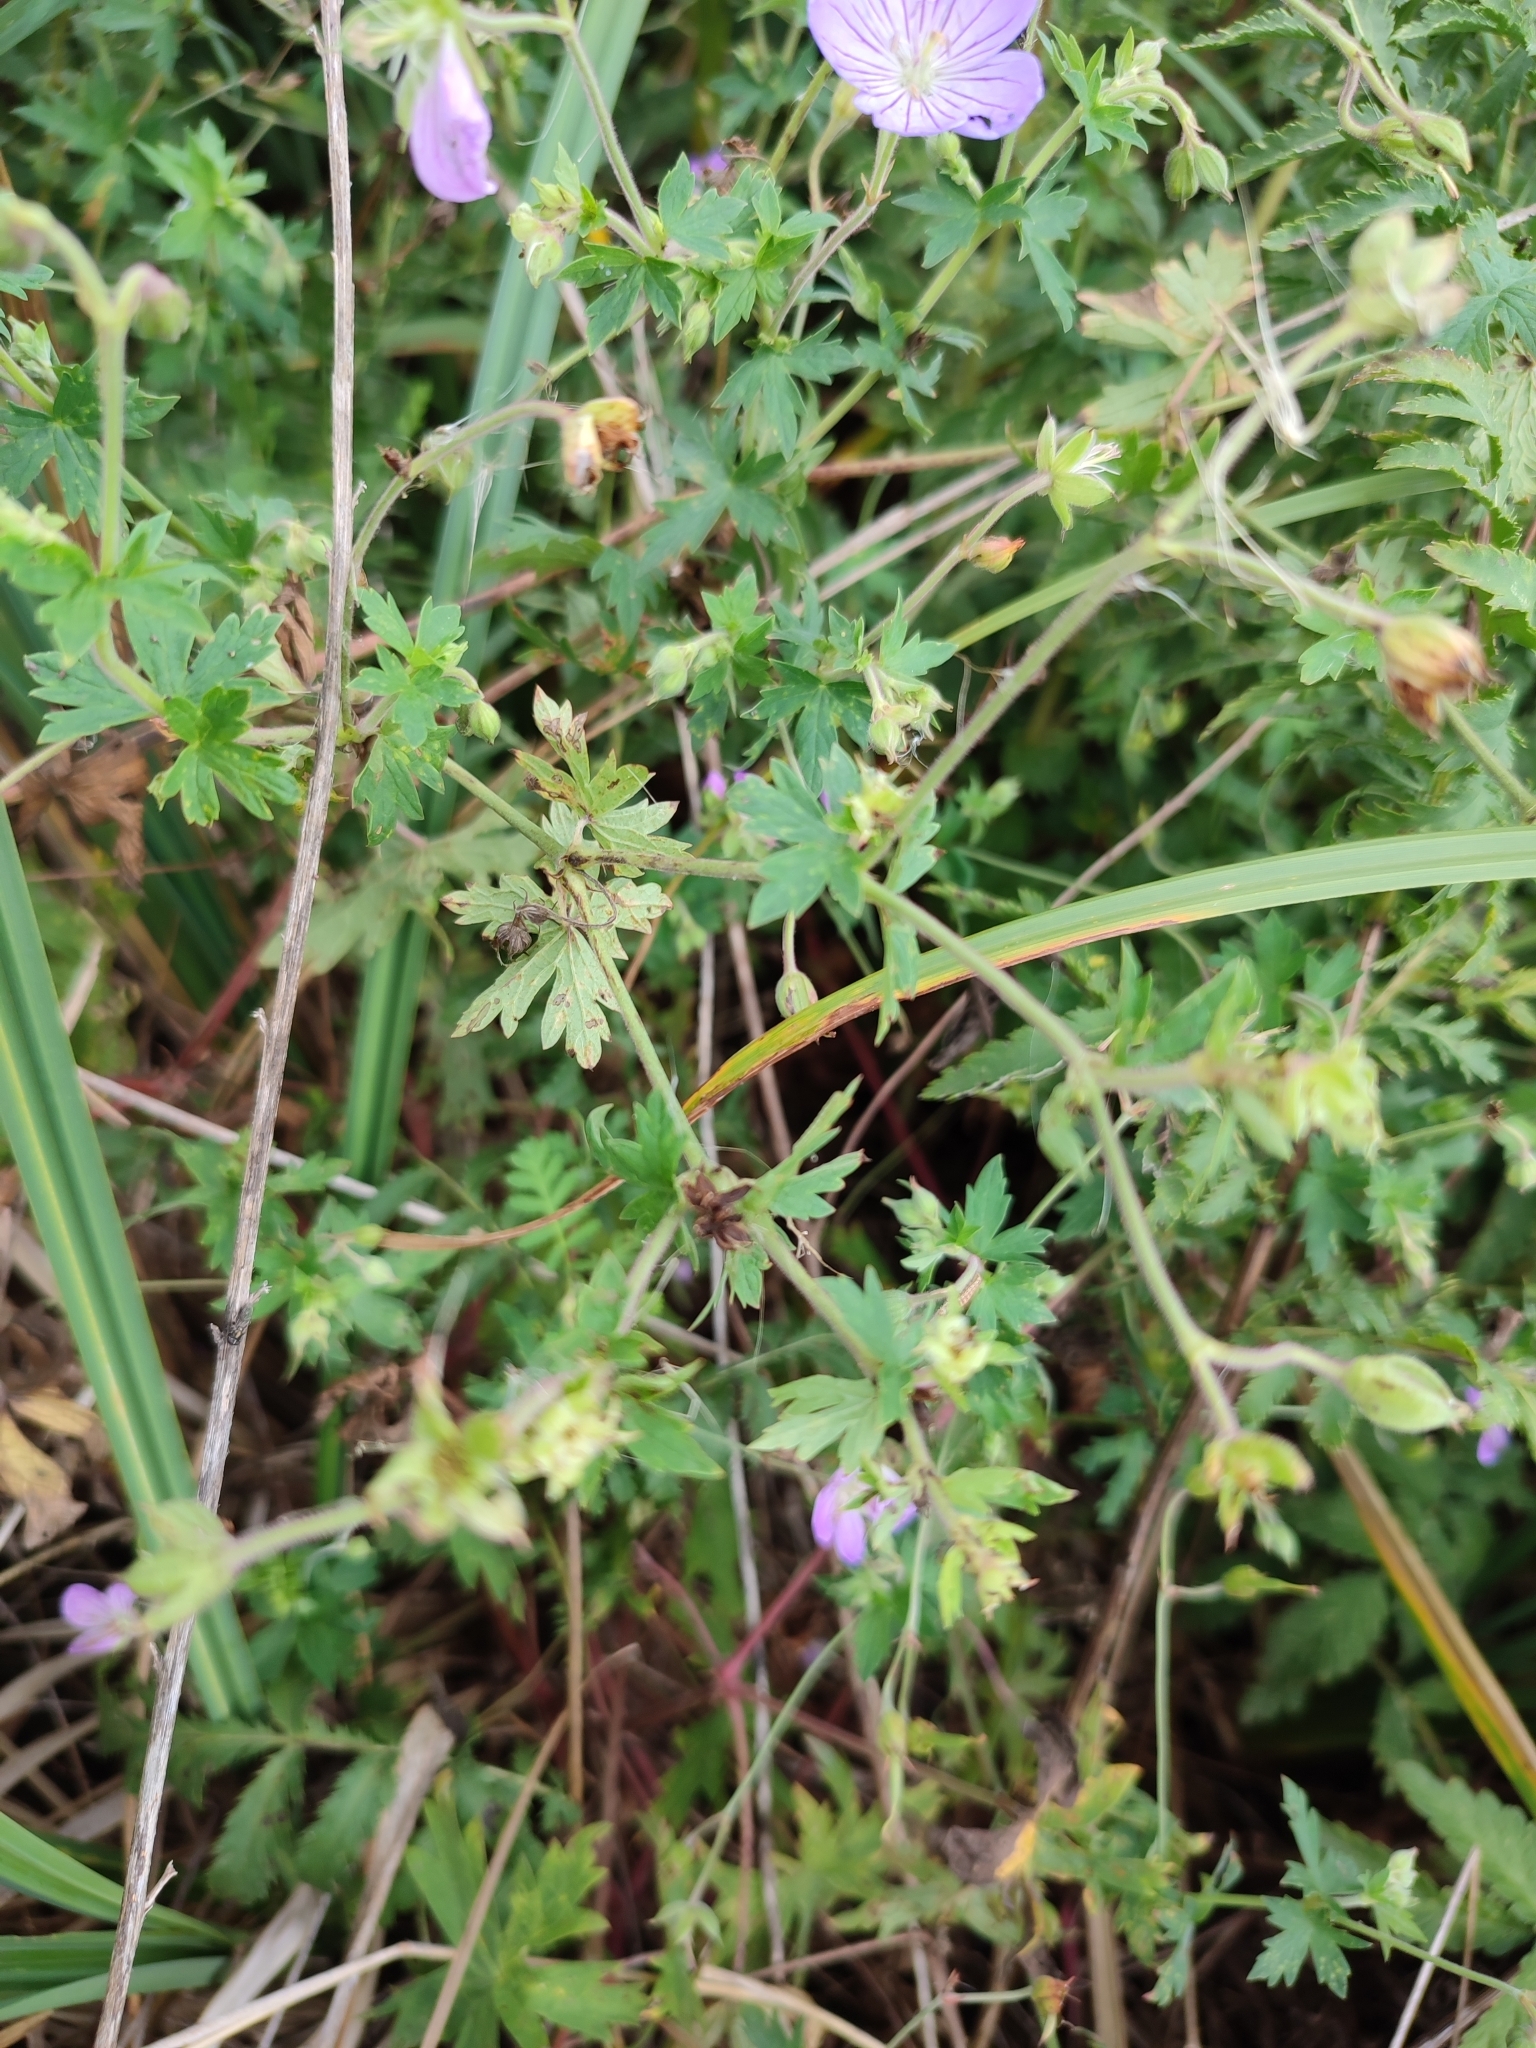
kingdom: Plantae
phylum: Tracheophyta
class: Magnoliopsida
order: Geraniales
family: Geraniaceae
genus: Geranium
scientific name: Geranium collinum
